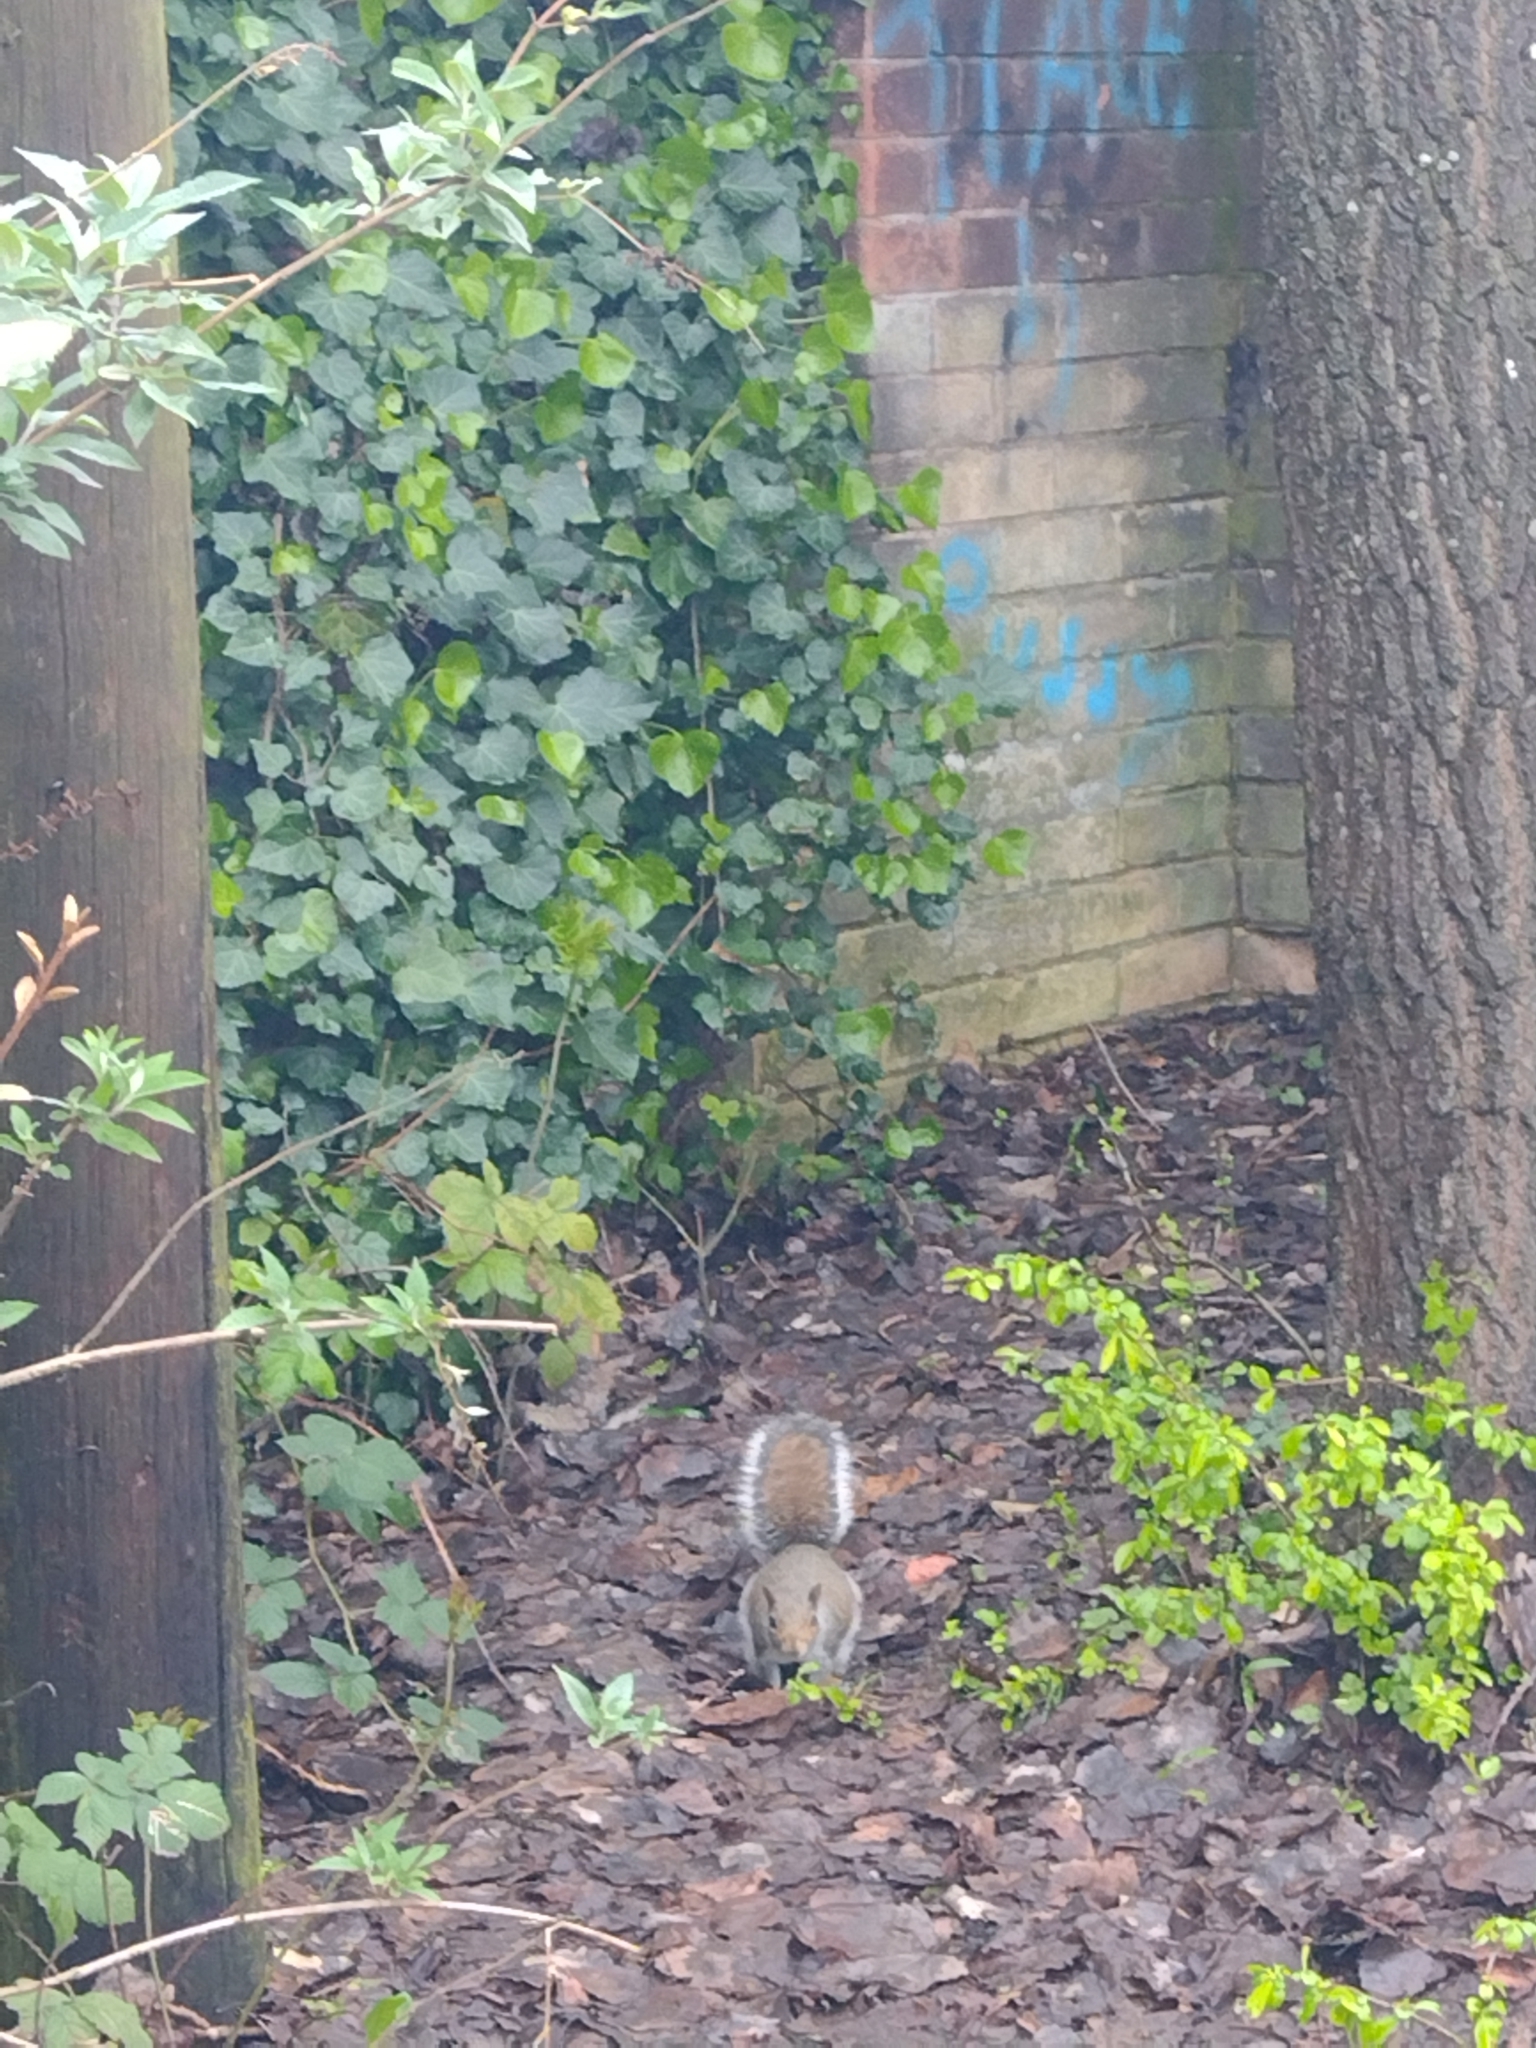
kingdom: Animalia
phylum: Chordata
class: Mammalia
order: Rodentia
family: Sciuridae
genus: Sciurus
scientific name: Sciurus carolinensis
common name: Eastern gray squirrel
